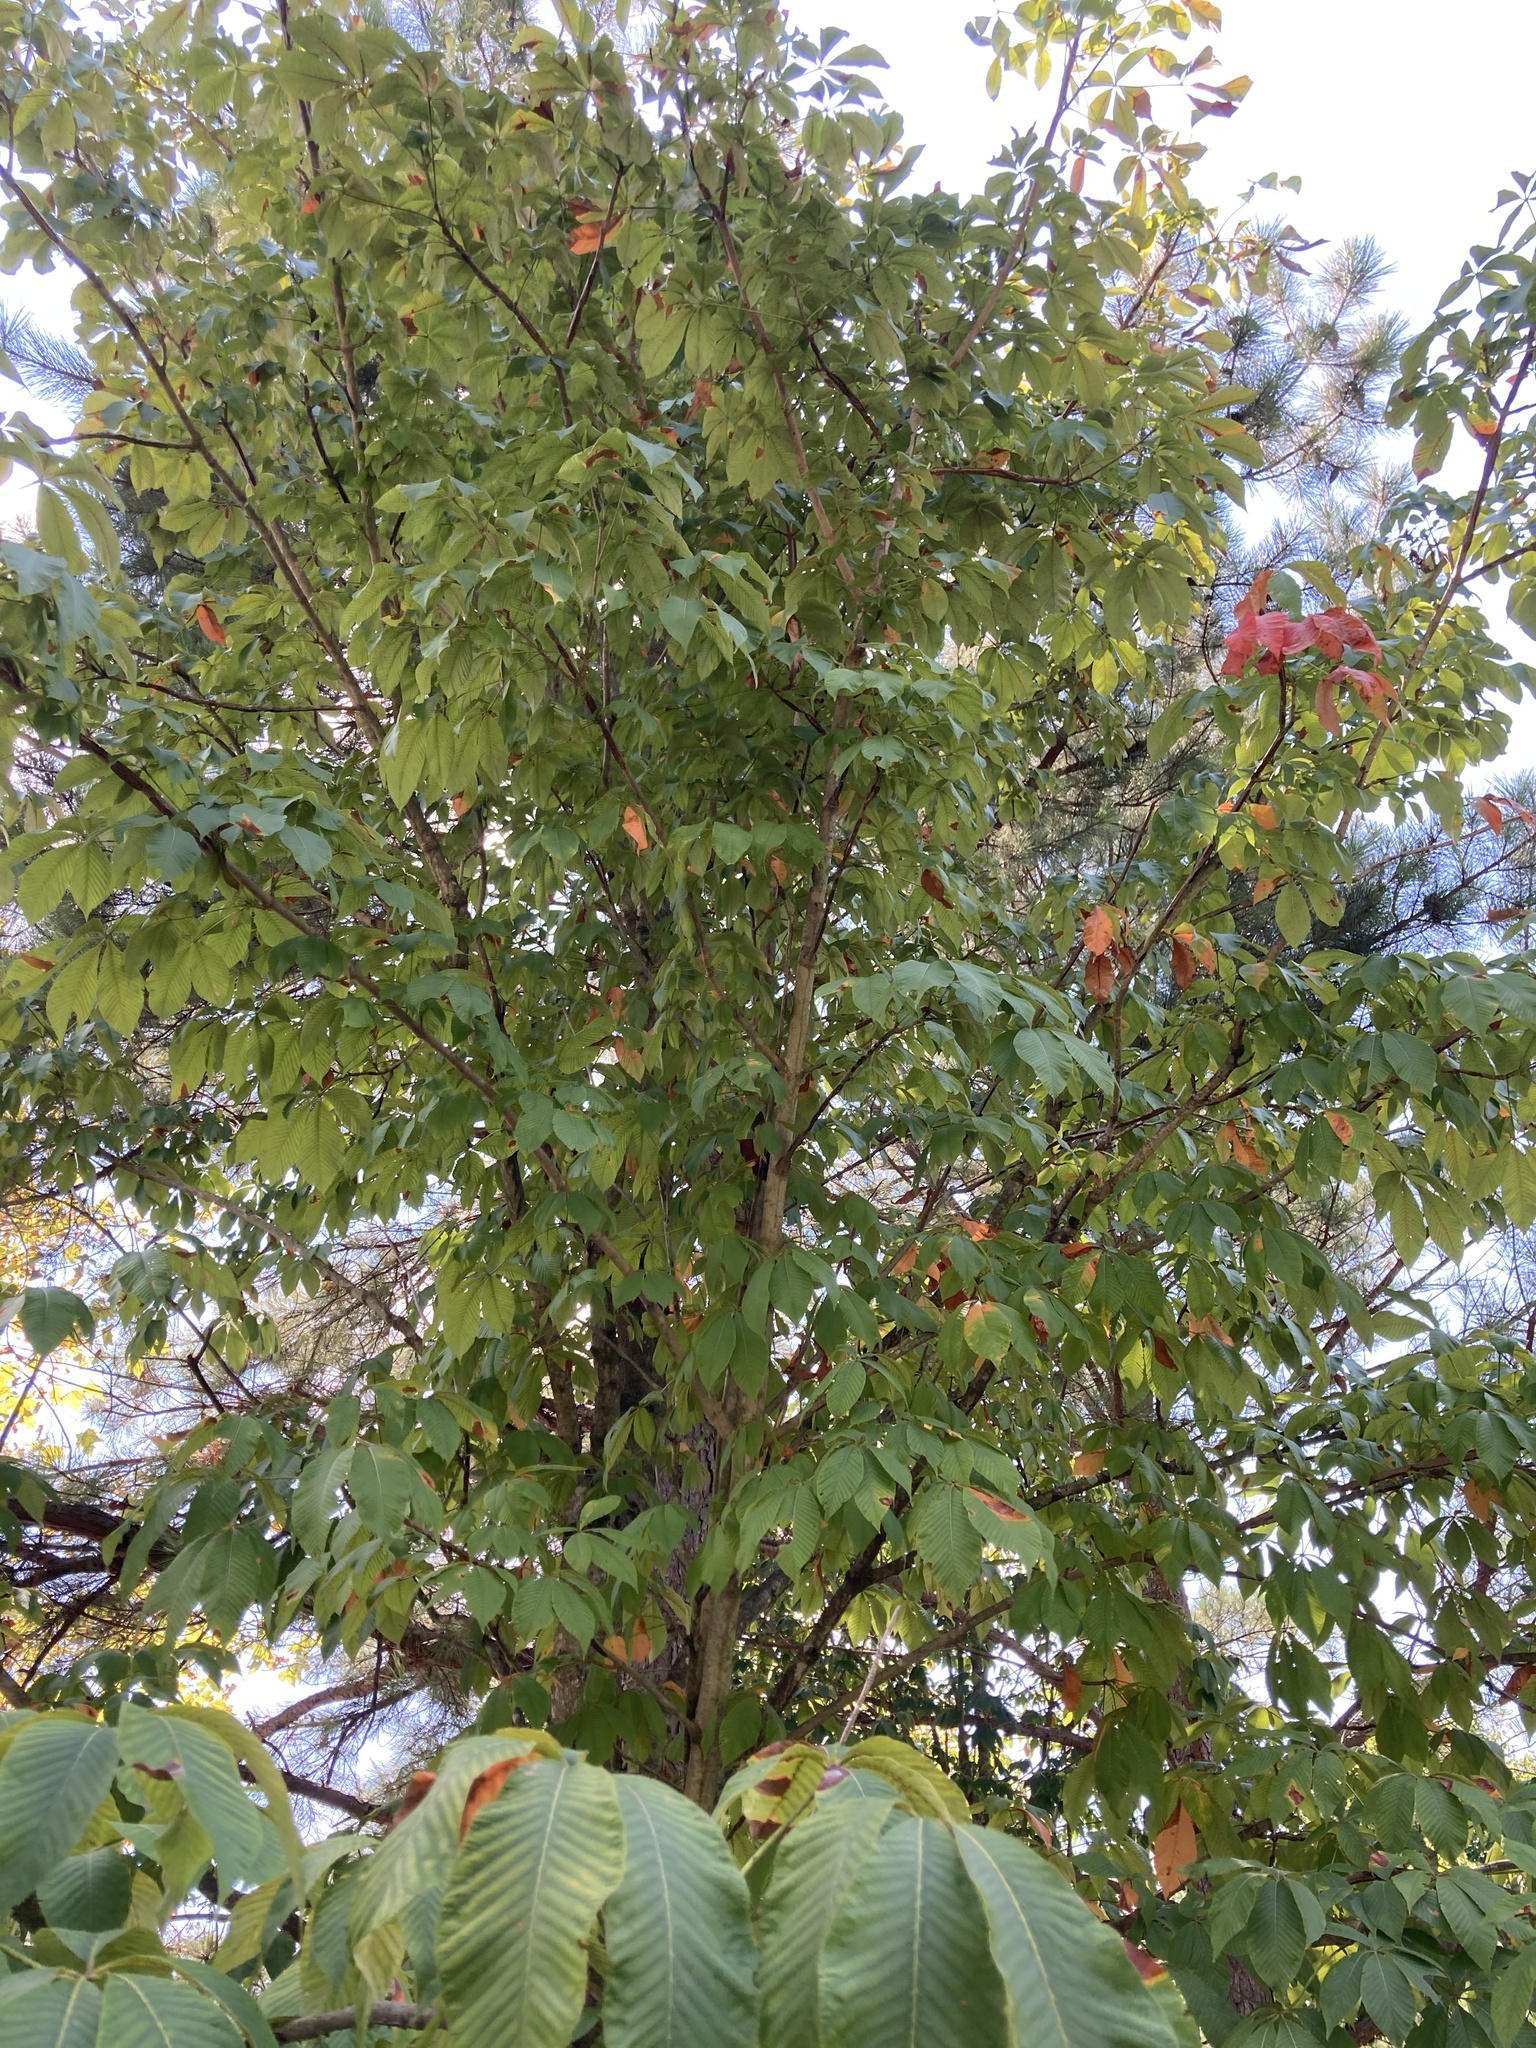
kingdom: Plantae
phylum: Tracheophyta
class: Magnoliopsida
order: Sapindales
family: Sapindaceae
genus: Aesculus
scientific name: Aesculus hippocastanum
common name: Horse-chestnut
